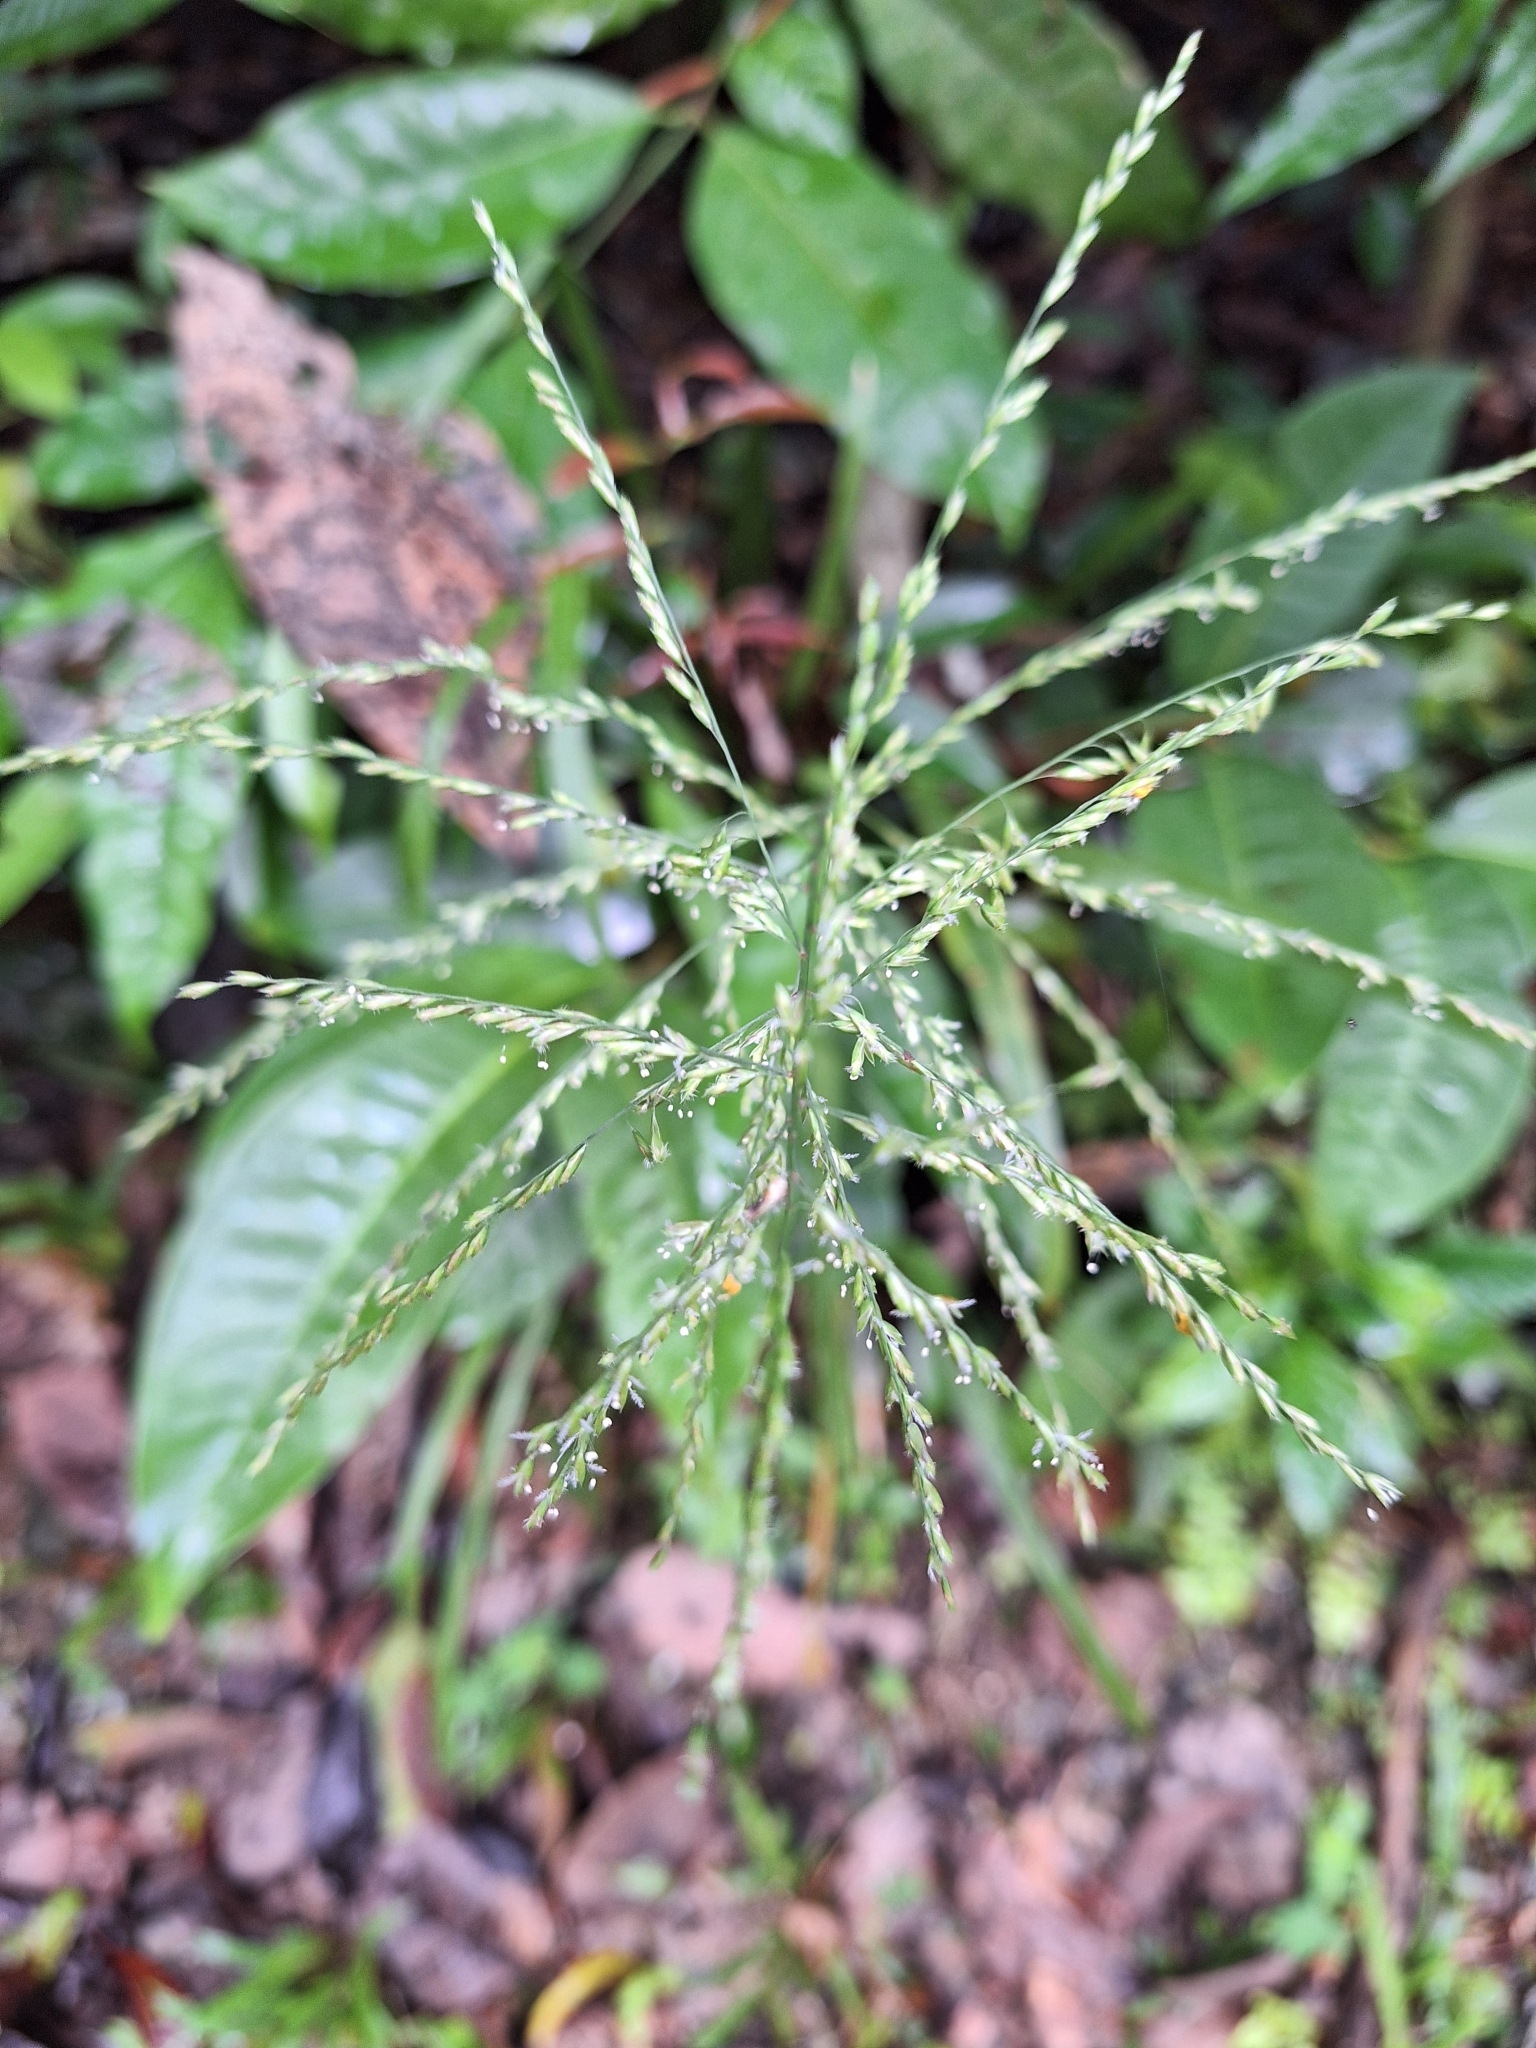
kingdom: Plantae
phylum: Tracheophyta
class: Liliopsida
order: Poales
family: Poaceae
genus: Centotheca
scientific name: Centotheca lappacea
